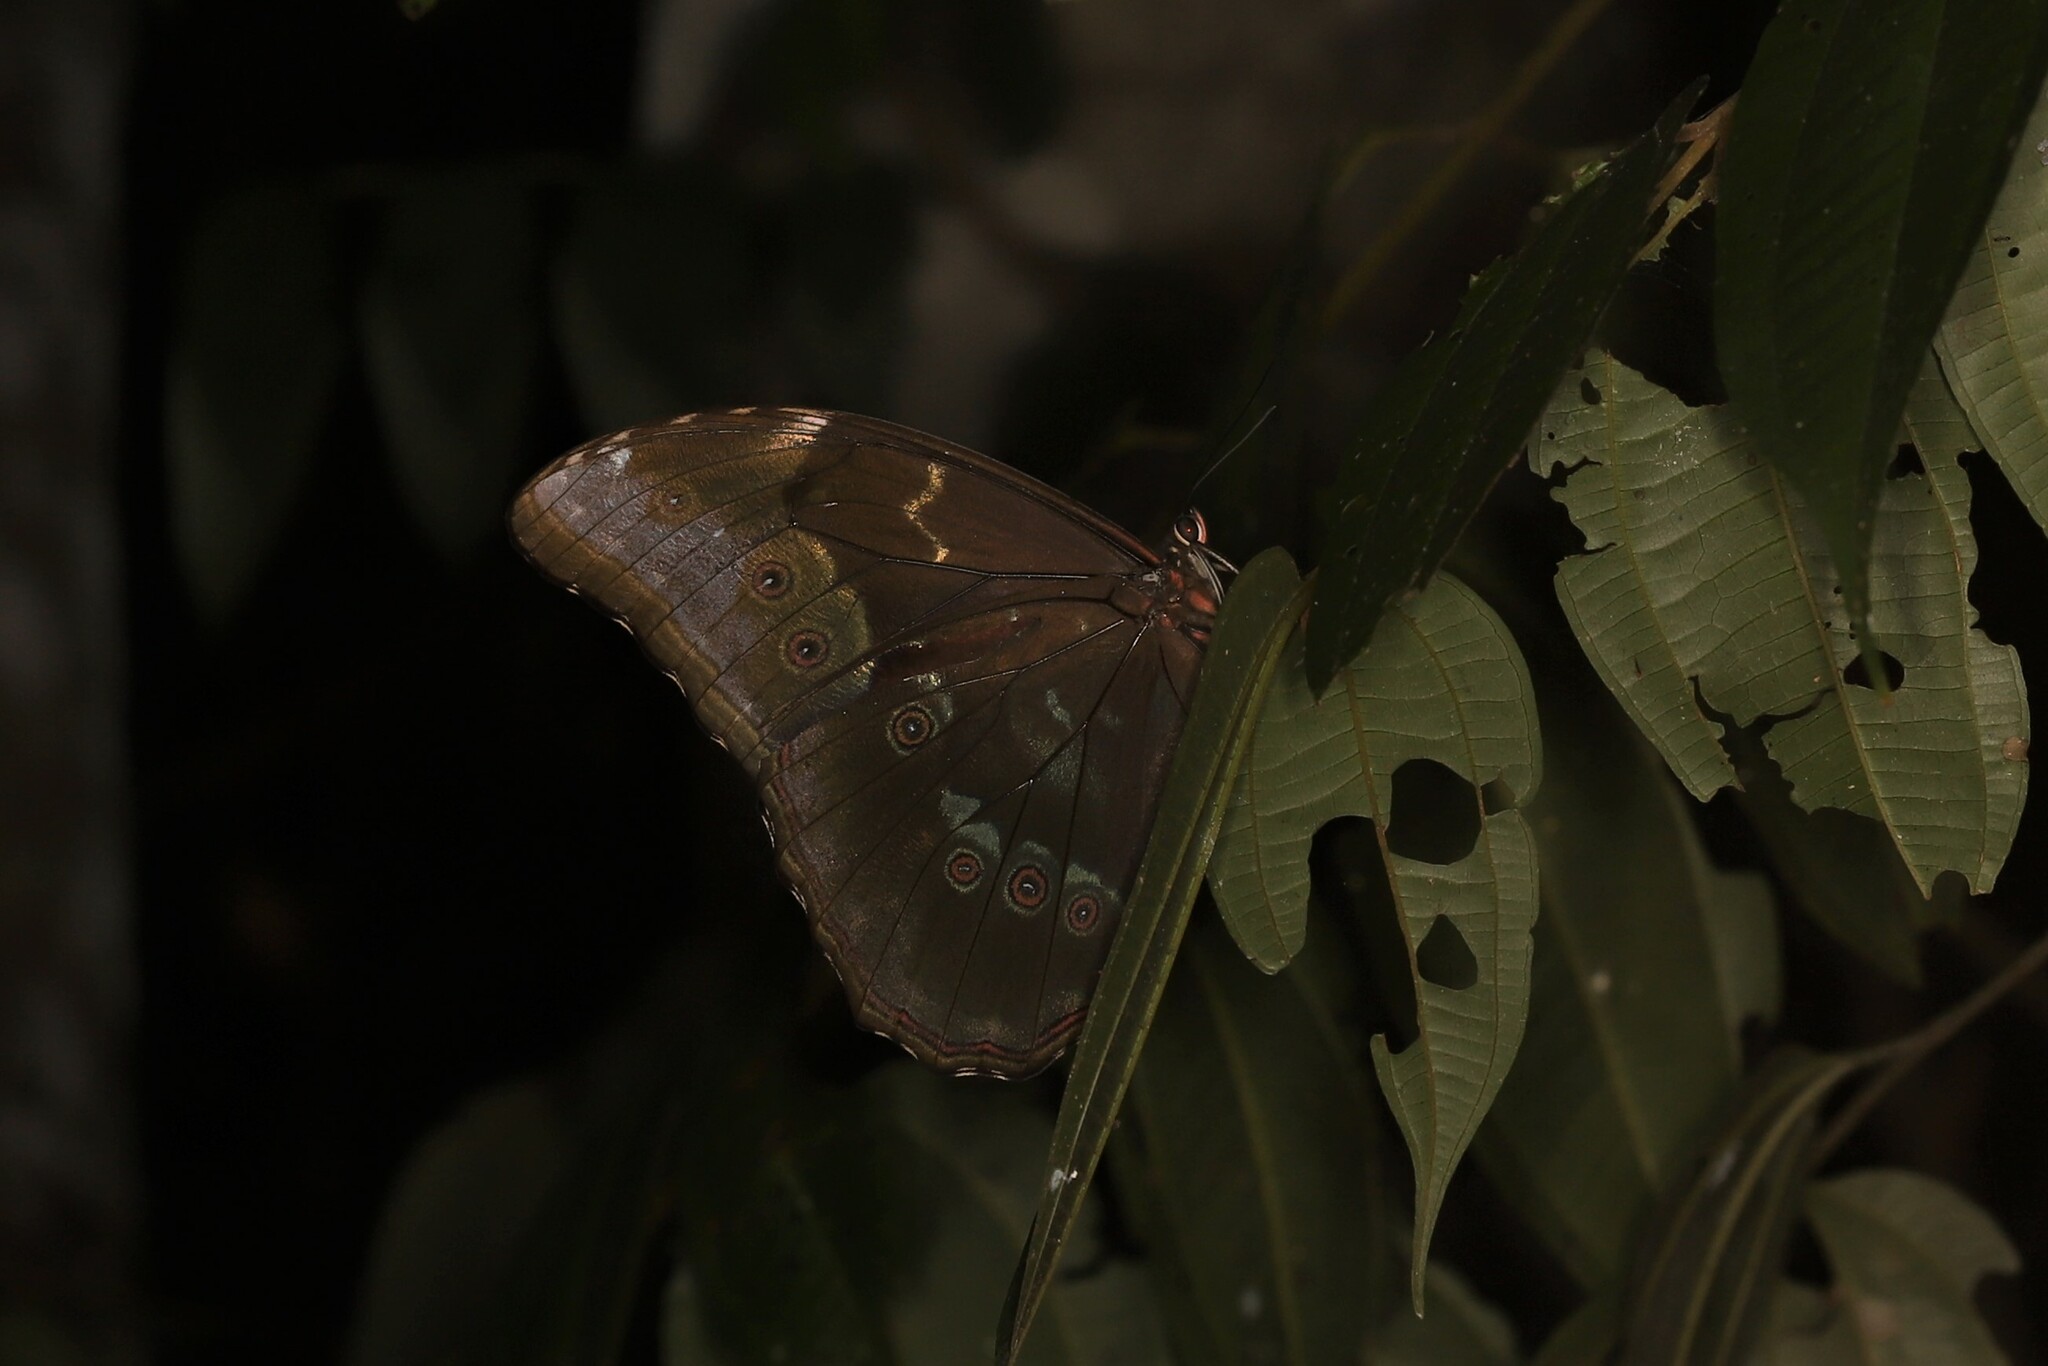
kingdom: Animalia
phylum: Arthropoda
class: Insecta
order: Lepidoptera
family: Nymphalidae
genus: Morpho
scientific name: Morpho menelaus
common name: Menelaus morpho
